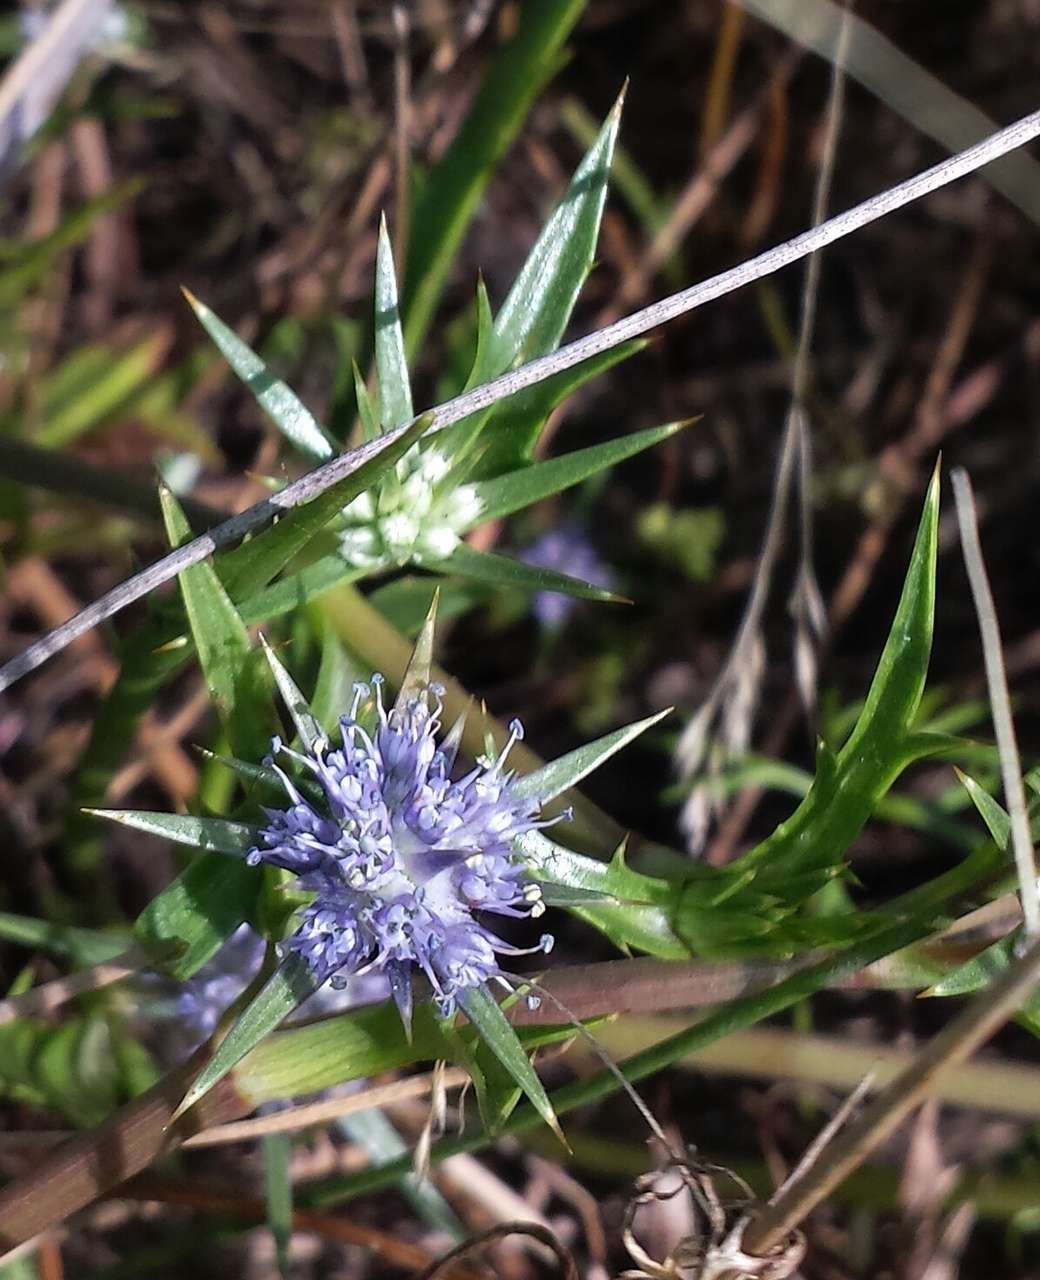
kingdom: Plantae
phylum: Tracheophyta
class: Magnoliopsida
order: Apiales
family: Apiaceae
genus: Eryngium
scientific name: Eryngium vesiculosum
